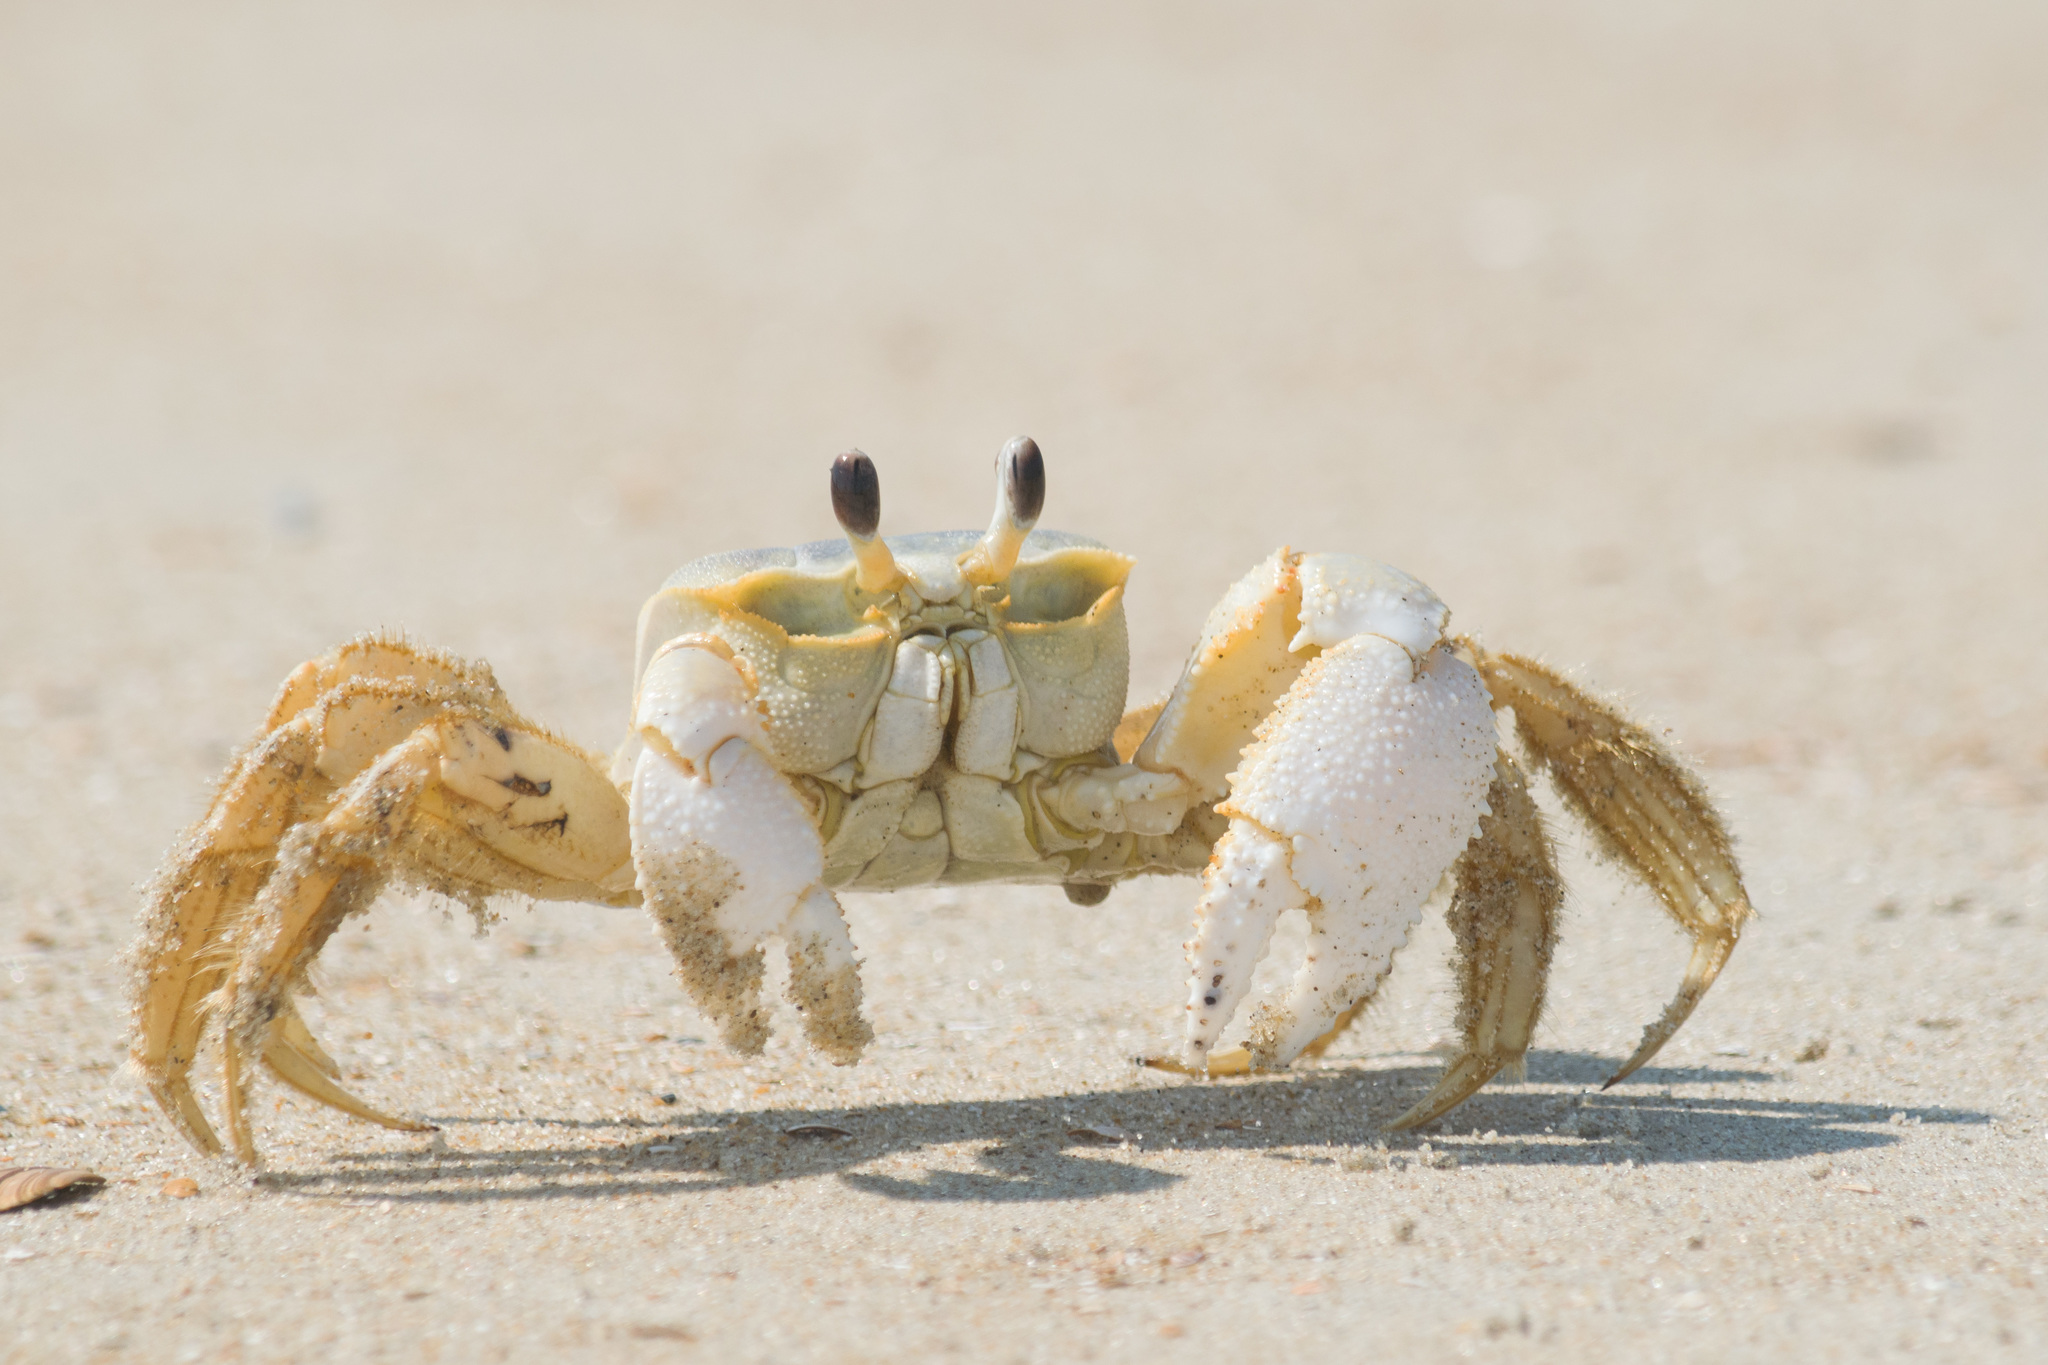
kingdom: Animalia
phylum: Arthropoda
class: Malacostraca
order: Decapoda
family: Ocypodidae
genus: Ocypode
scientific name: Ocypode quadrata
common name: Ghost crab
